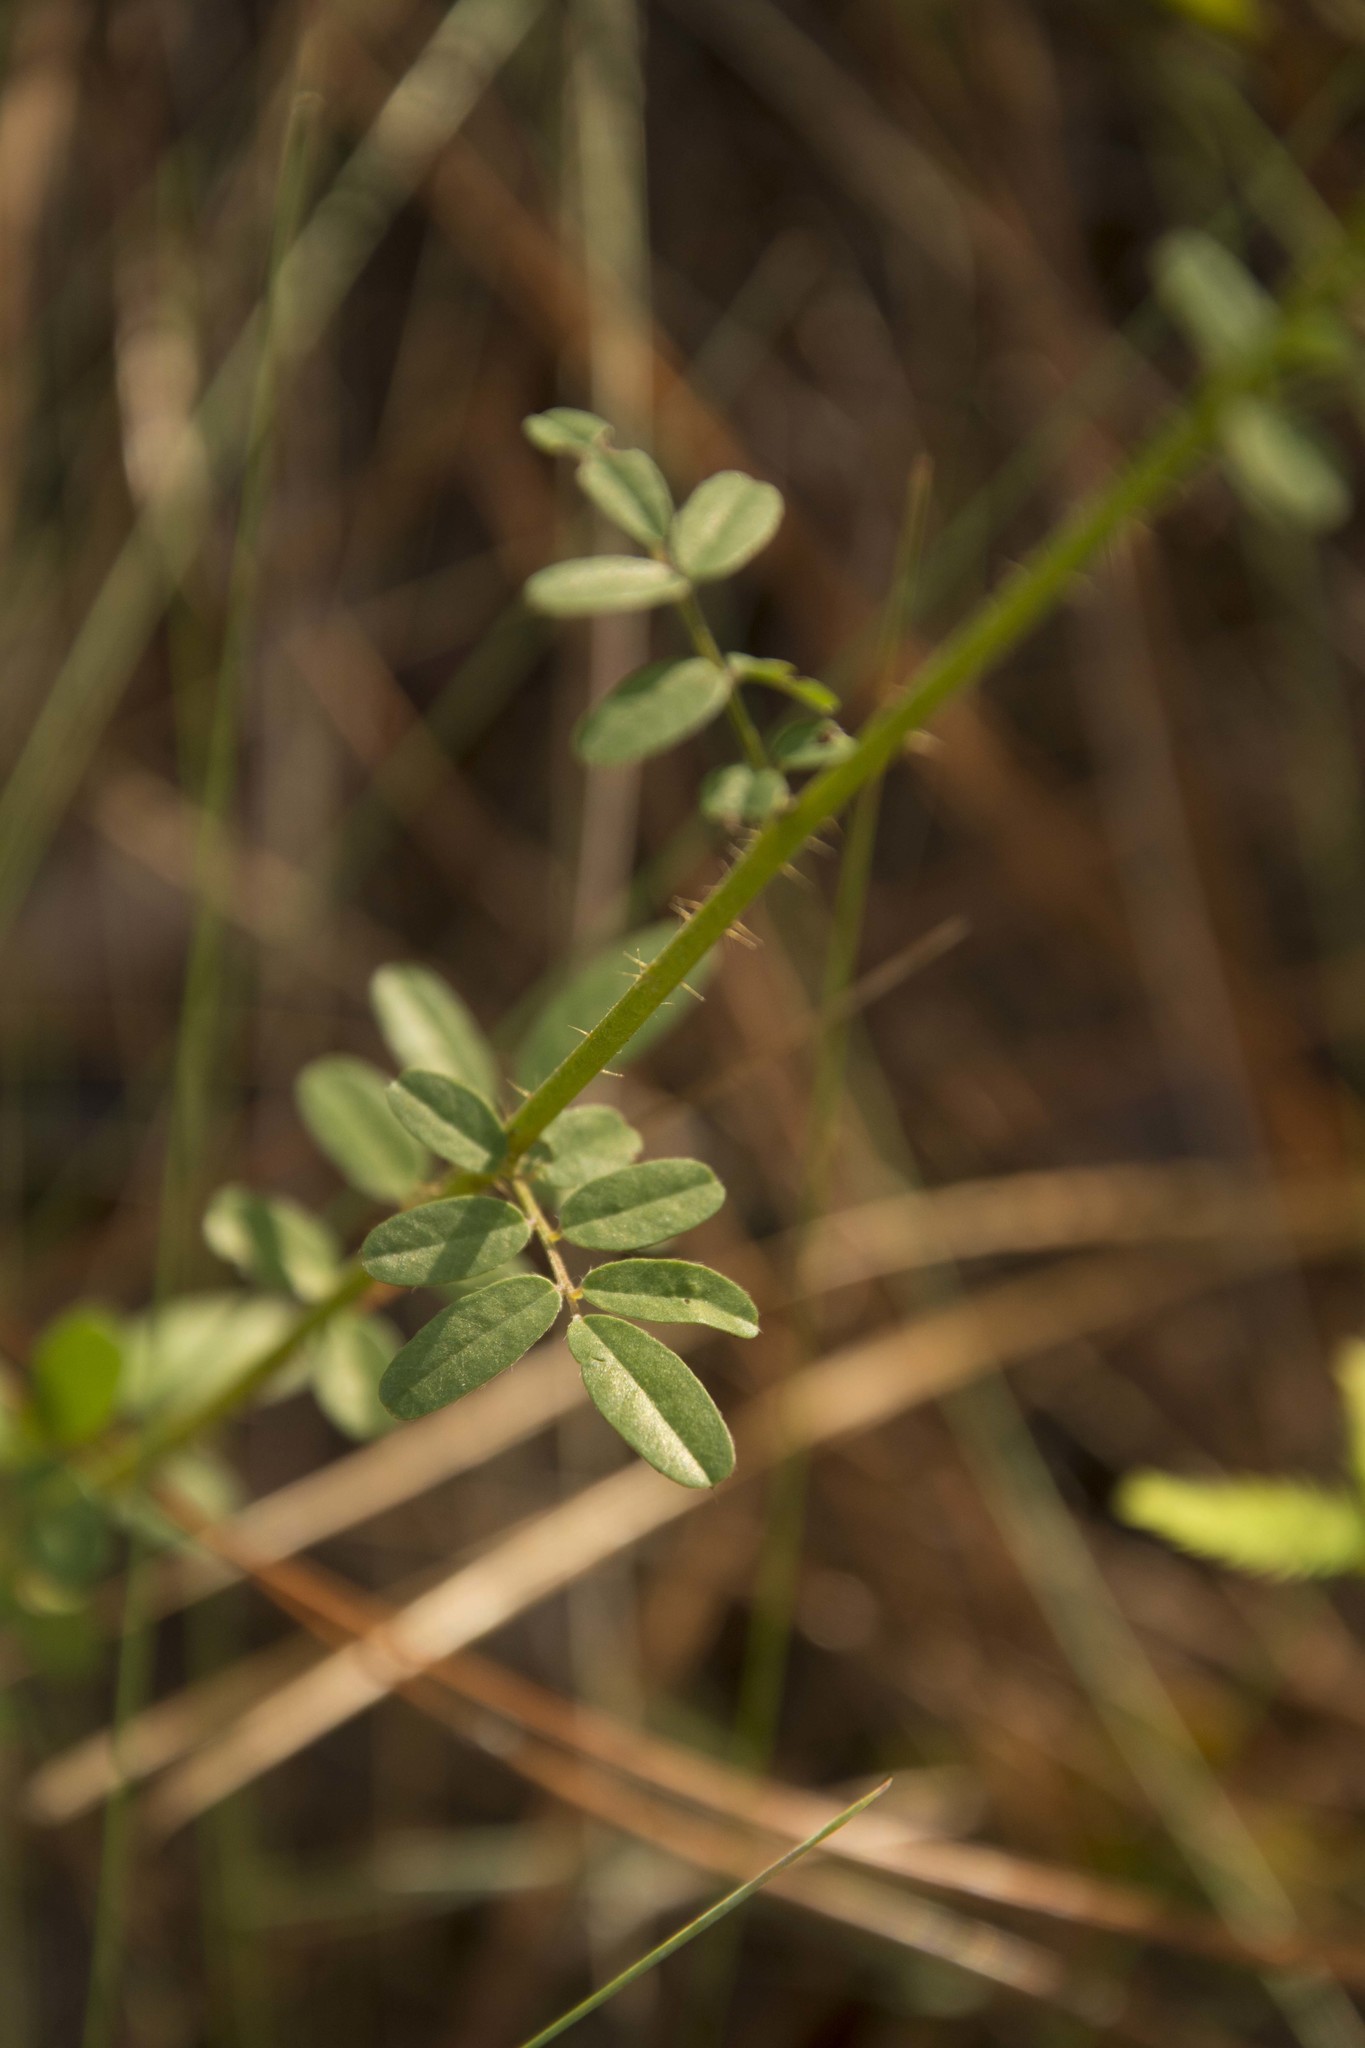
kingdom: Plantae
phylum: Tracheophyta
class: Magnoliopsida
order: Fabales
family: Fabaceae
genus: Chapmannia
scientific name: Chapmannia floridana
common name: Alicia
